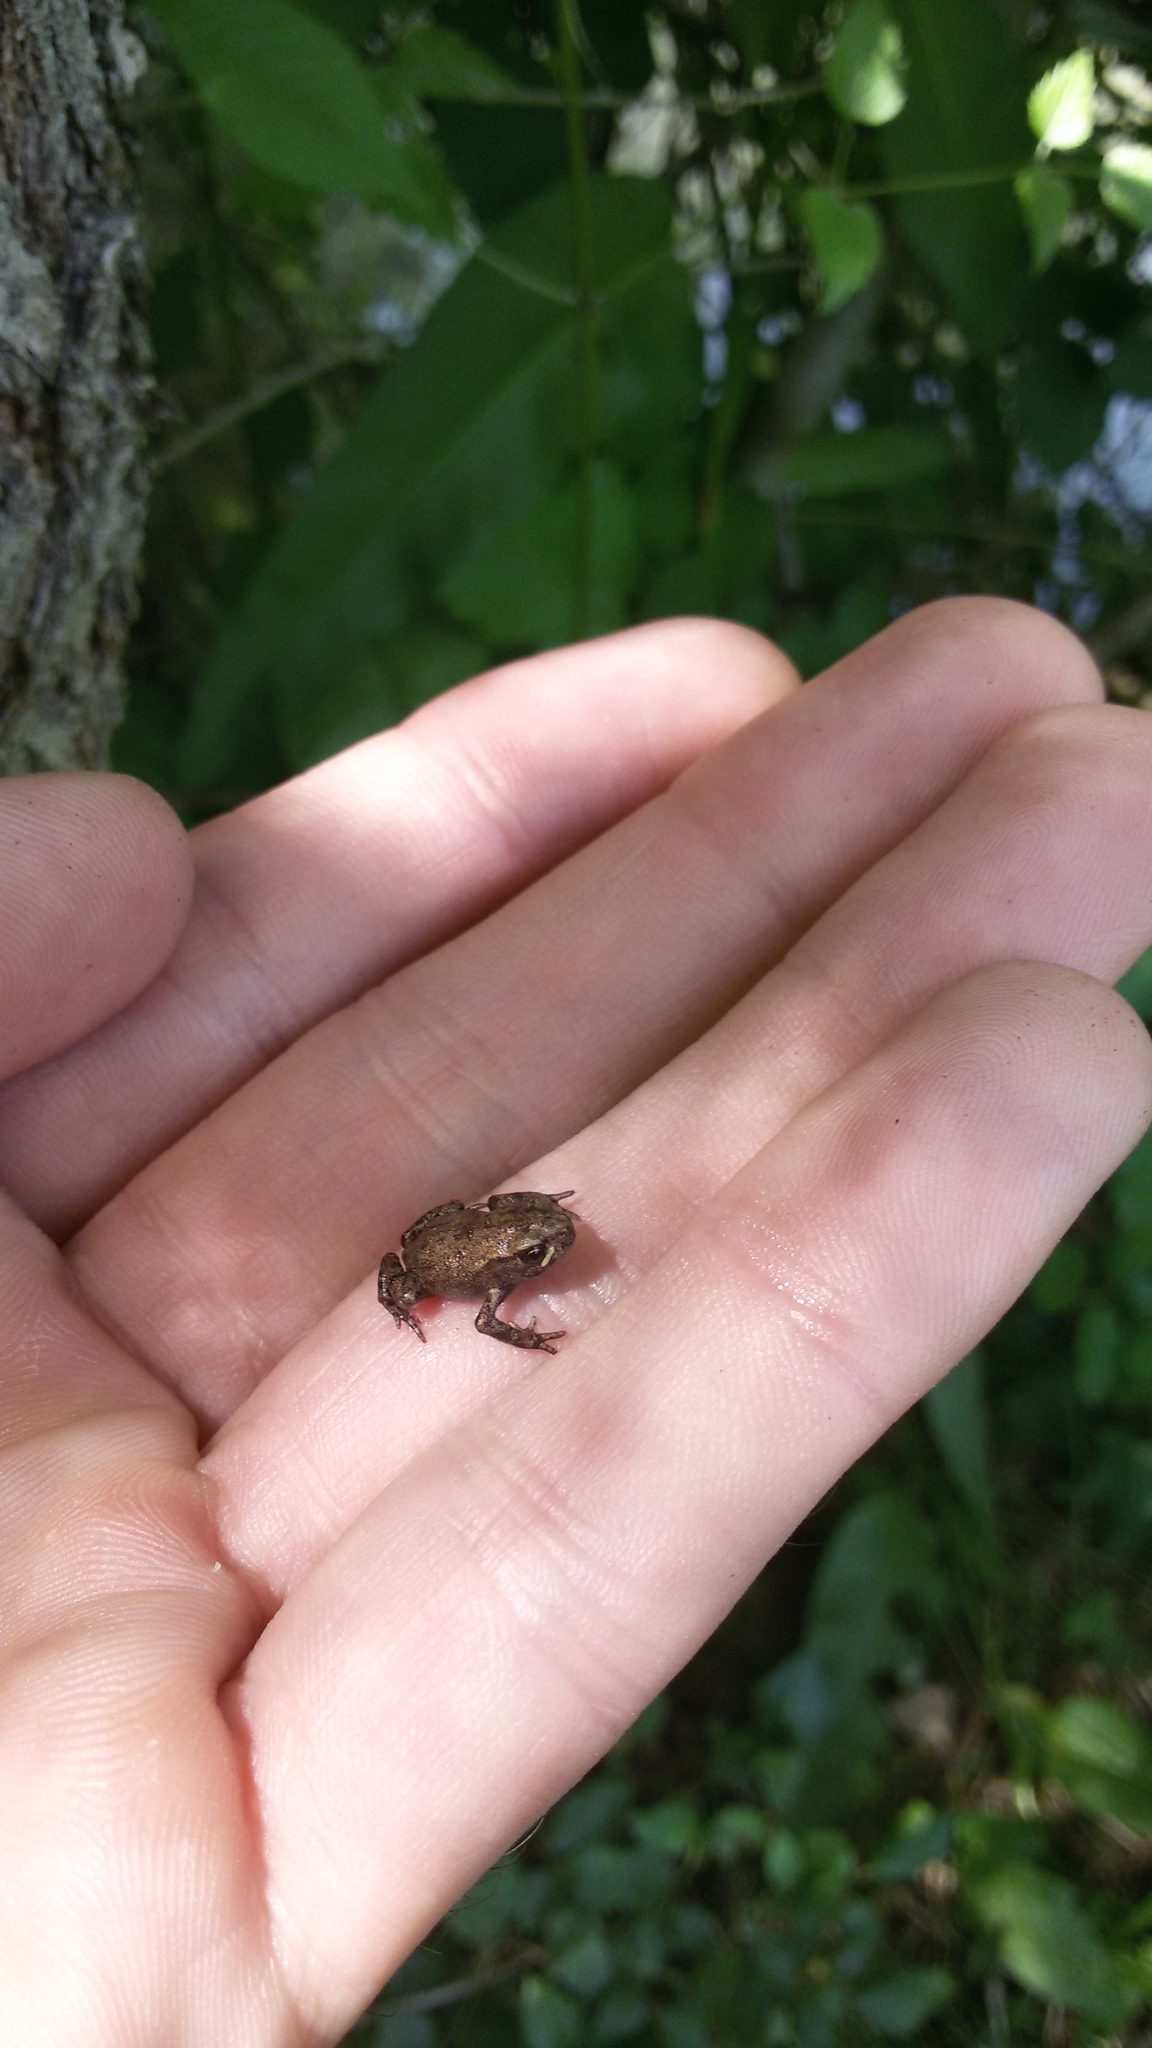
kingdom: Animalia
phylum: Chordata
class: Amphibia
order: Anura
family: Bufonidae
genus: Bufo
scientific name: Bufo bufo
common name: Common toad
